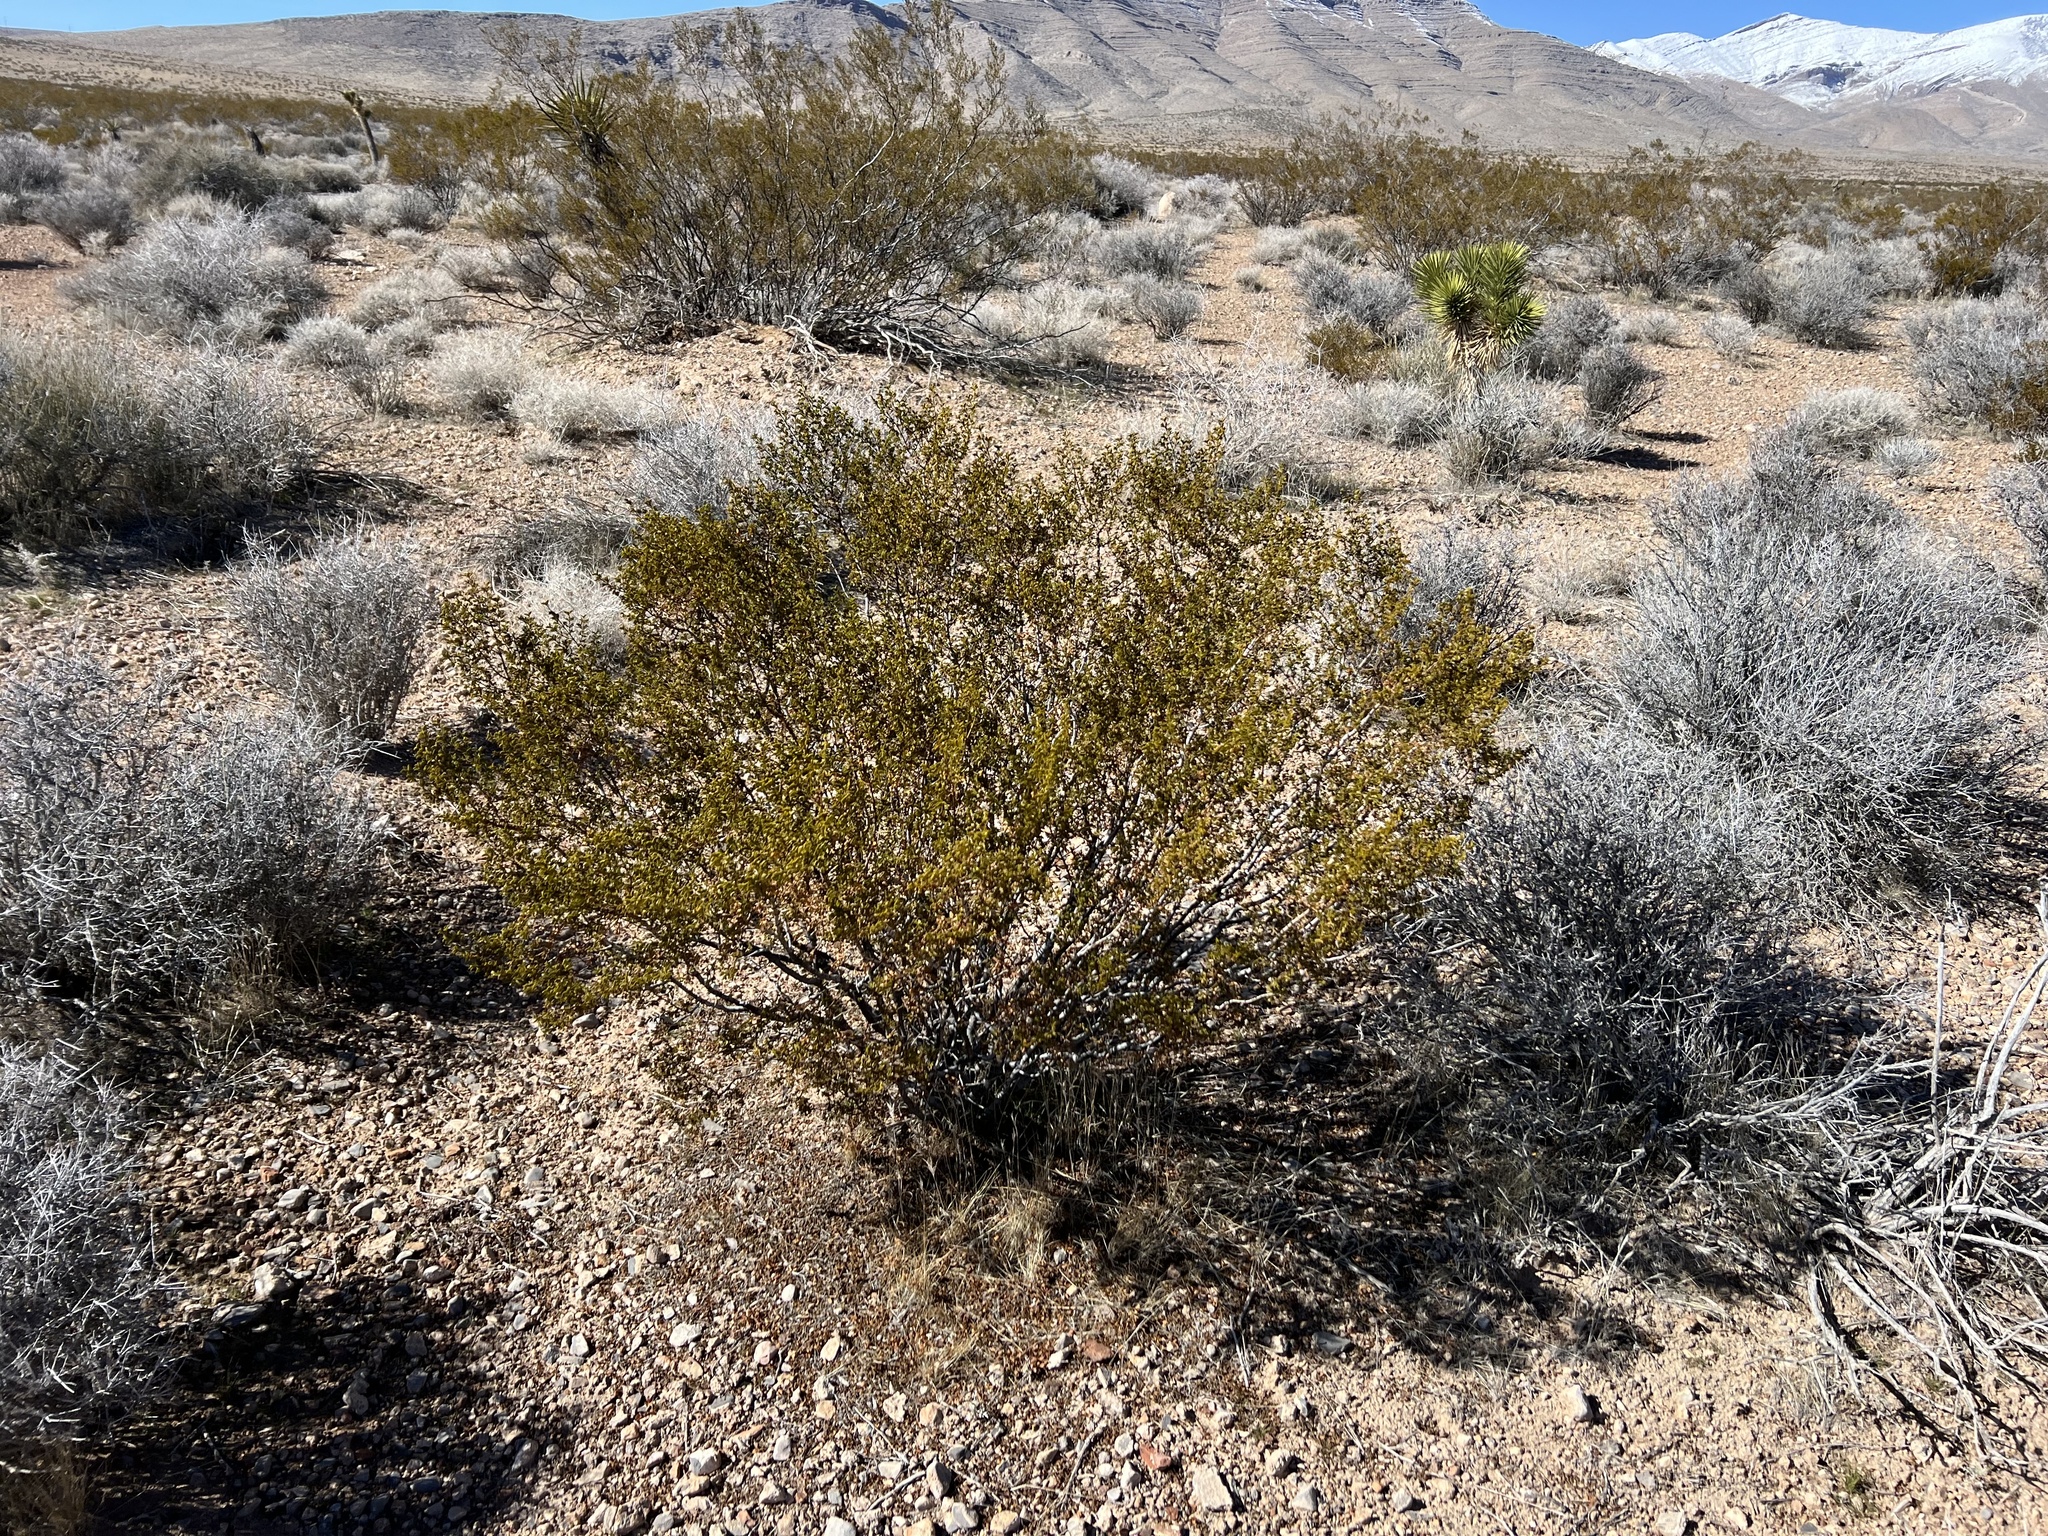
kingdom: Plantae
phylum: Tracheophyta
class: Magnoliopsida
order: Zygophyllales
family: Zygophyllaceae
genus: Larrea
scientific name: Larrea tridentata
